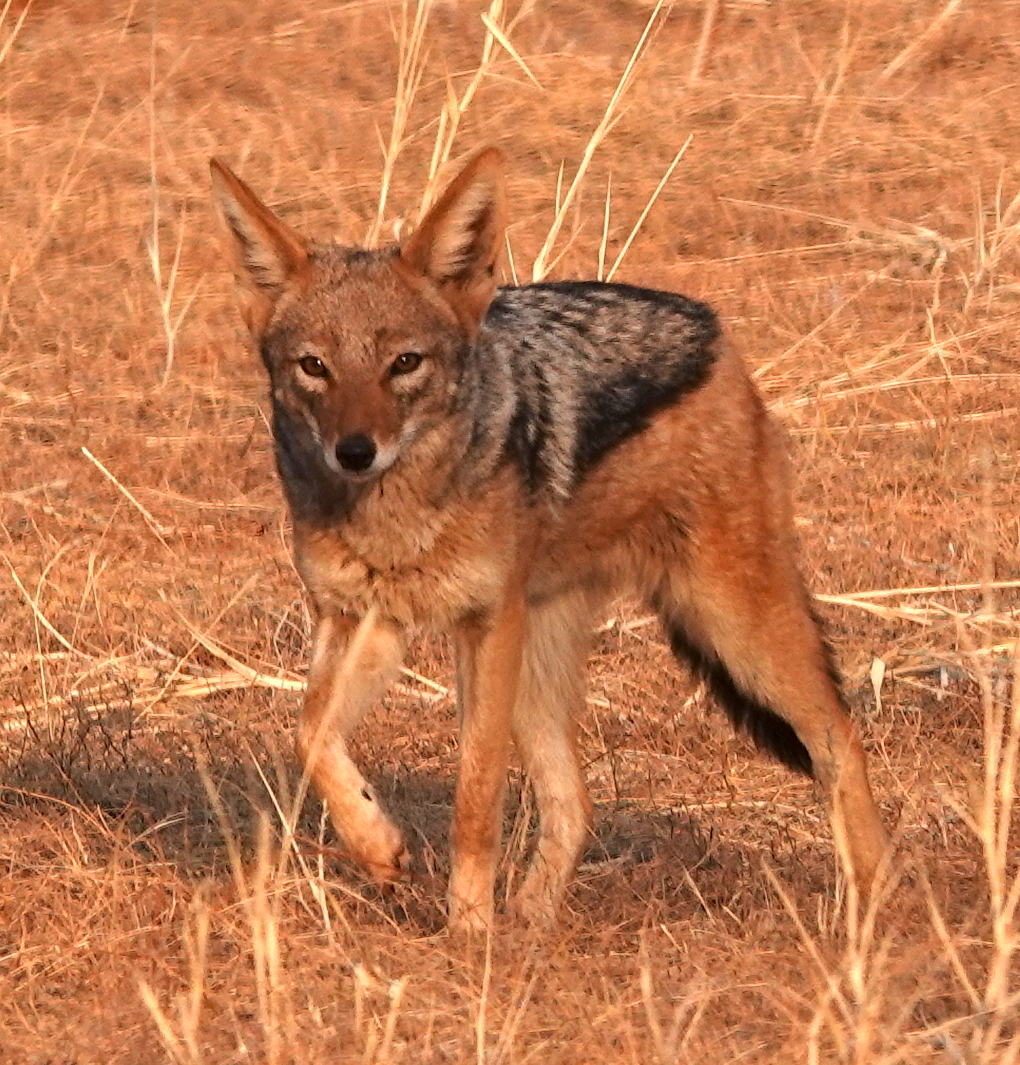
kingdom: Animalia
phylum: Chordata
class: Mammalia
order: Carnivora
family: Canidae
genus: Lupulella
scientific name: Lupulella
